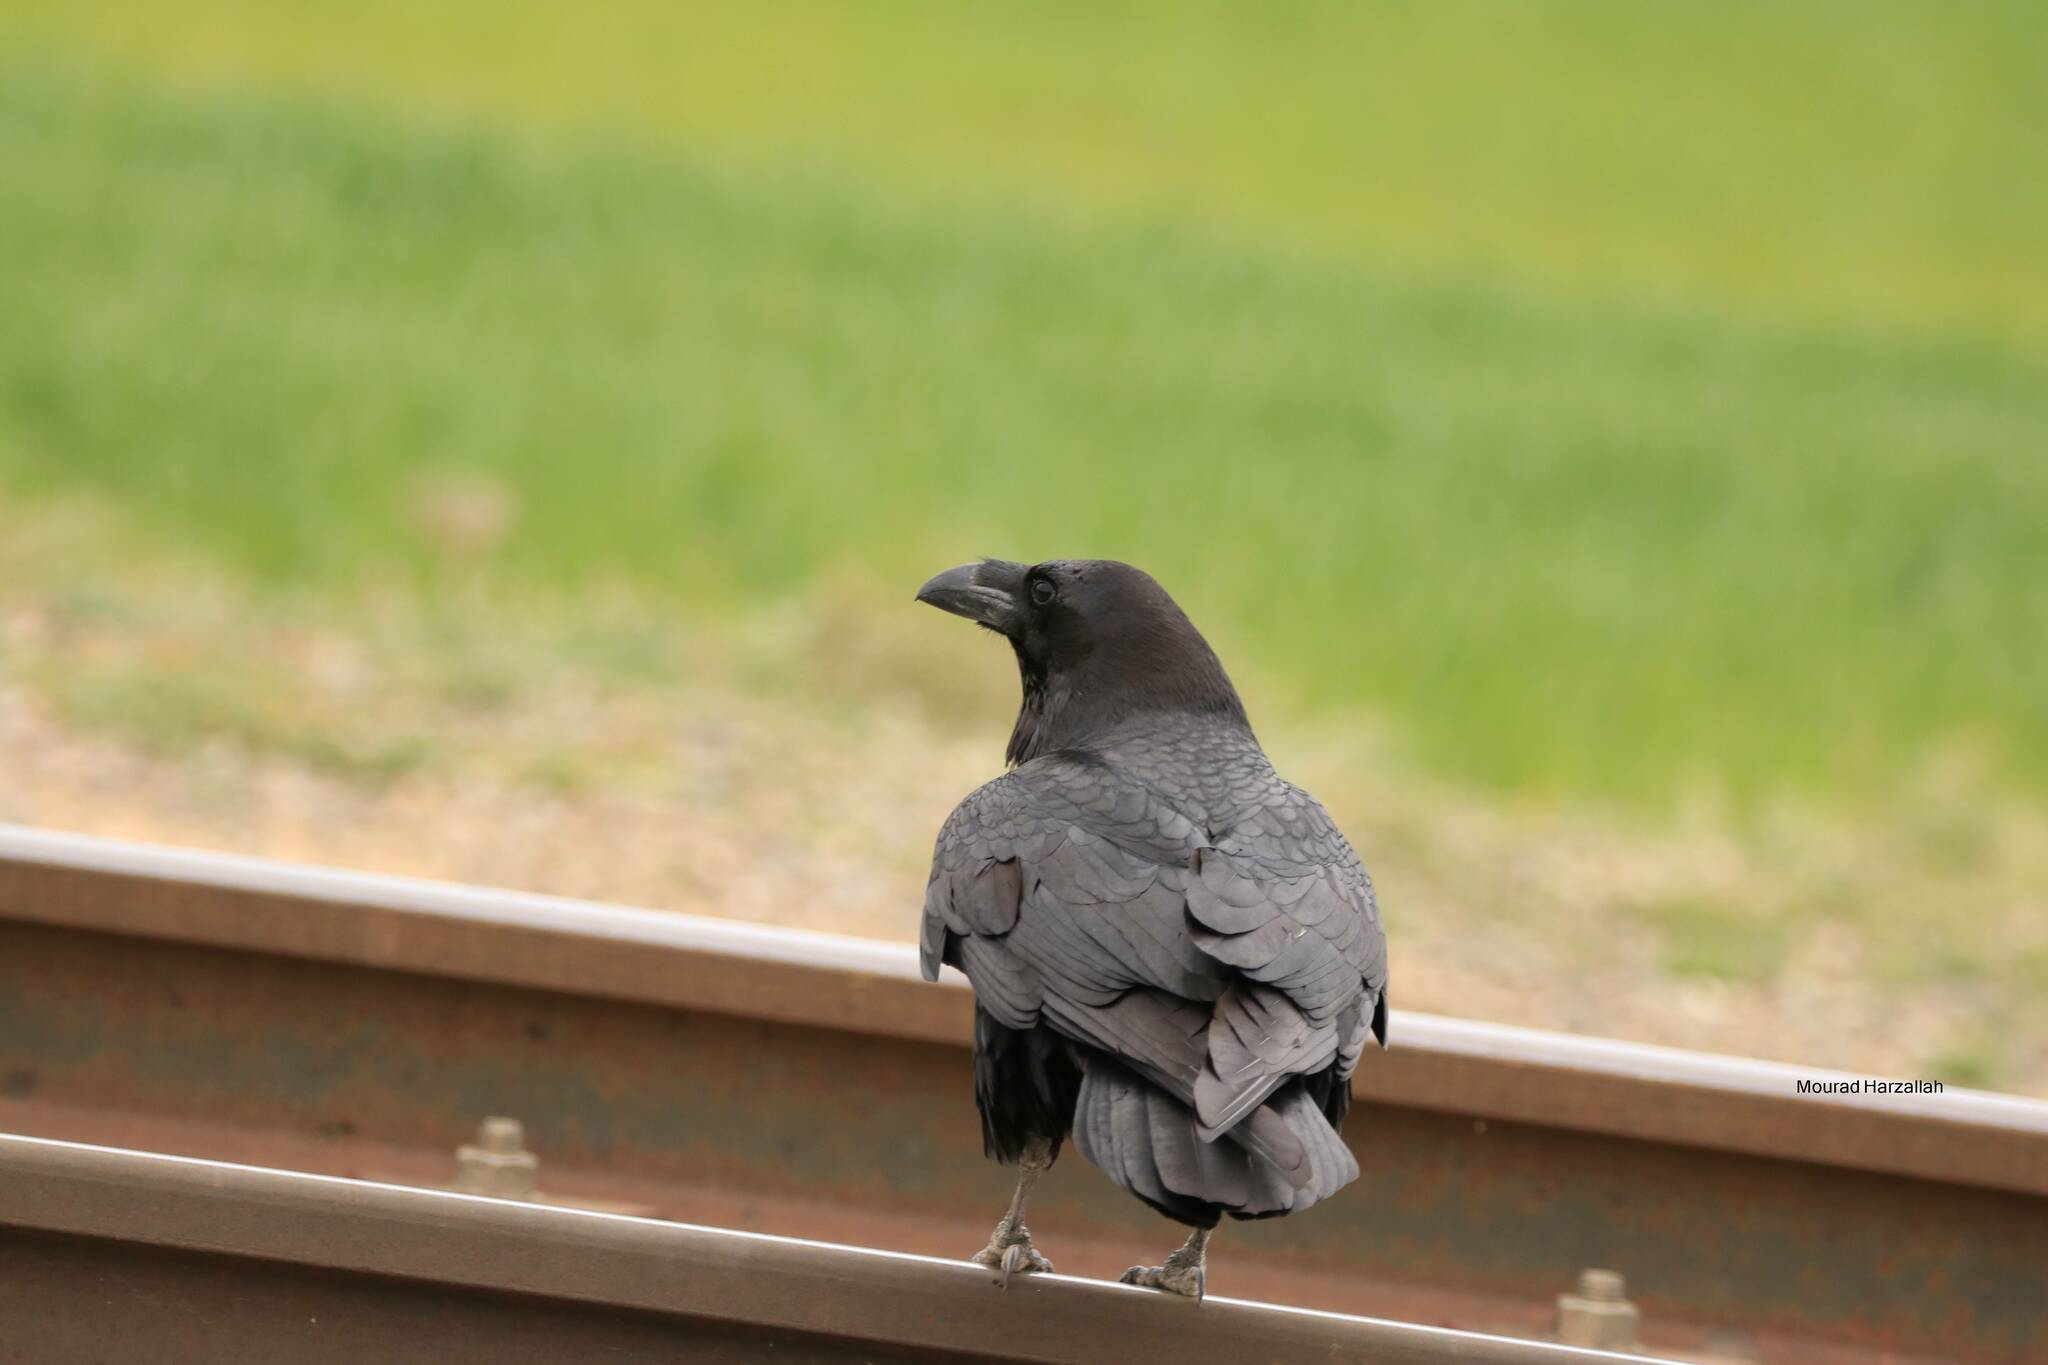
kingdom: Animalia
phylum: Chordata
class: Aves
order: Passeriformes
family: Corvidae
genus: Corvus
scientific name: Corvus corax
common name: Common raven
